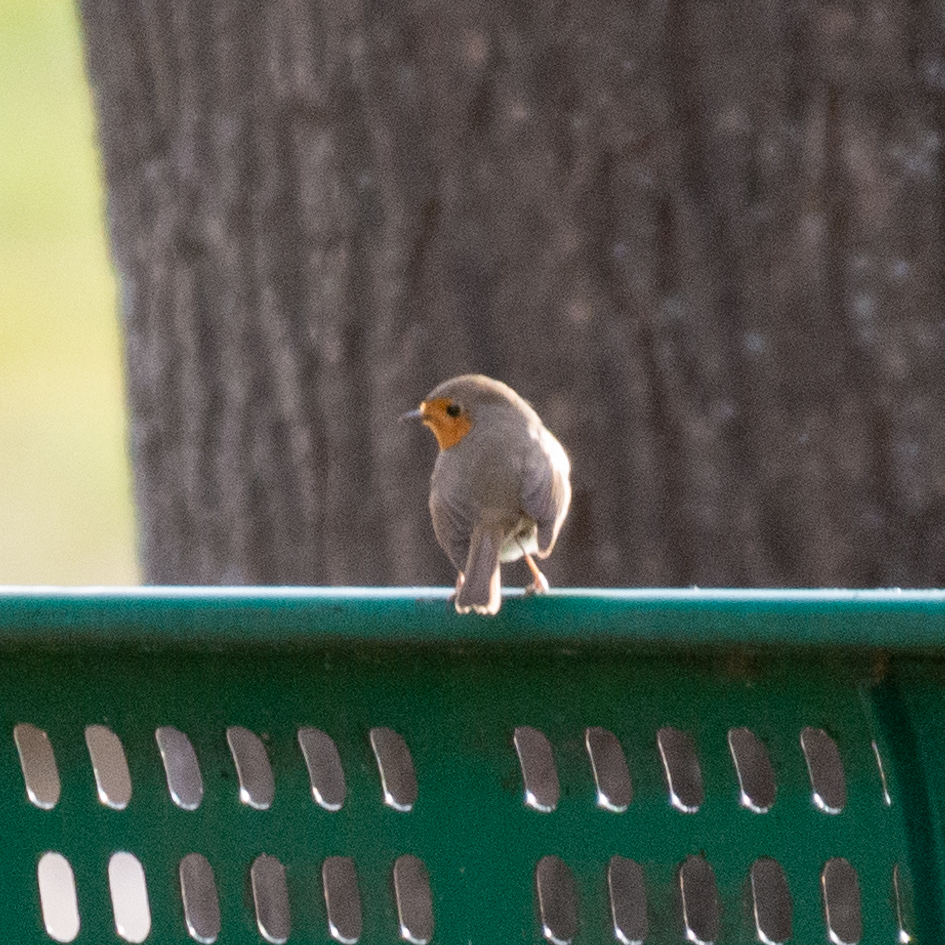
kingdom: Animalia
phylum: Chordata
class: Aves
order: Passeriformes
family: Muscicapidae
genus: Erithacus
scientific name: Erithacus rubecula
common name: European robin
